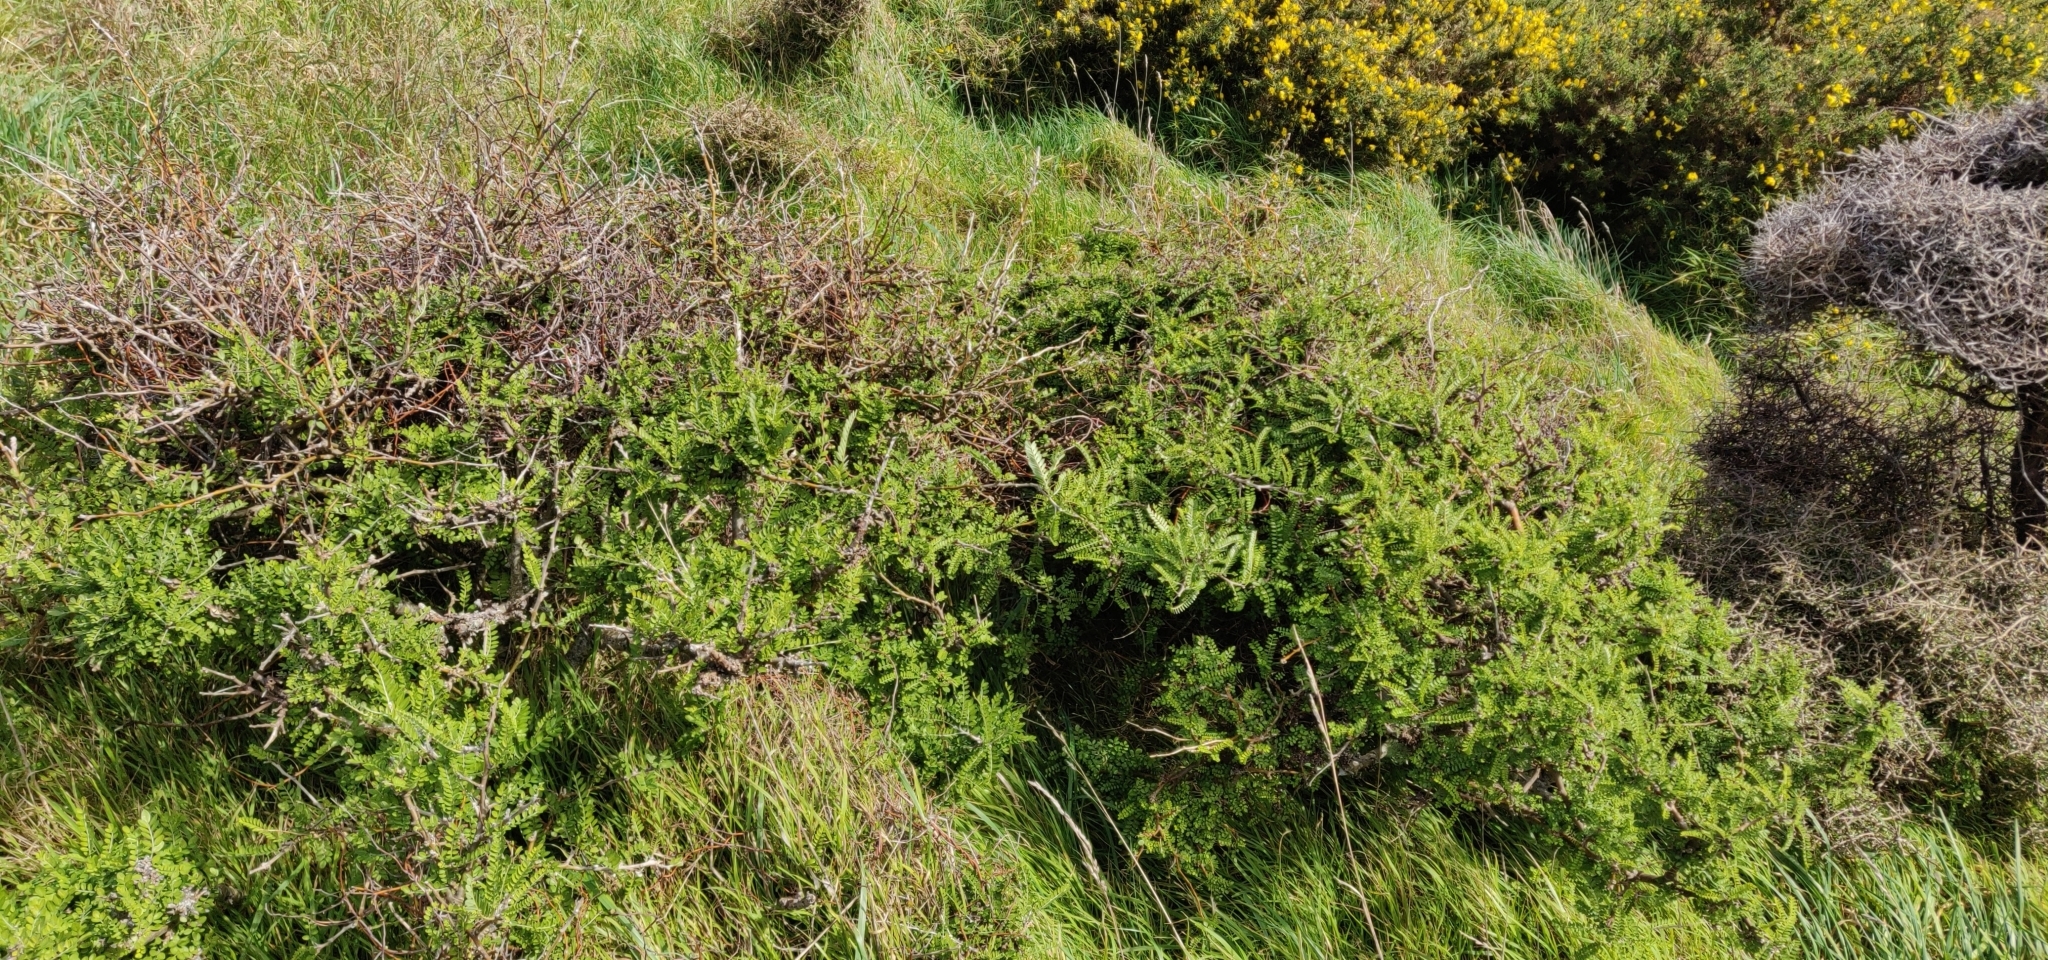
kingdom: Plantae
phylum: Tracheophyta
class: Magnoliopsida
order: Fabales
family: Fabaceae
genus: Sophora
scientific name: Sophora molloyi
